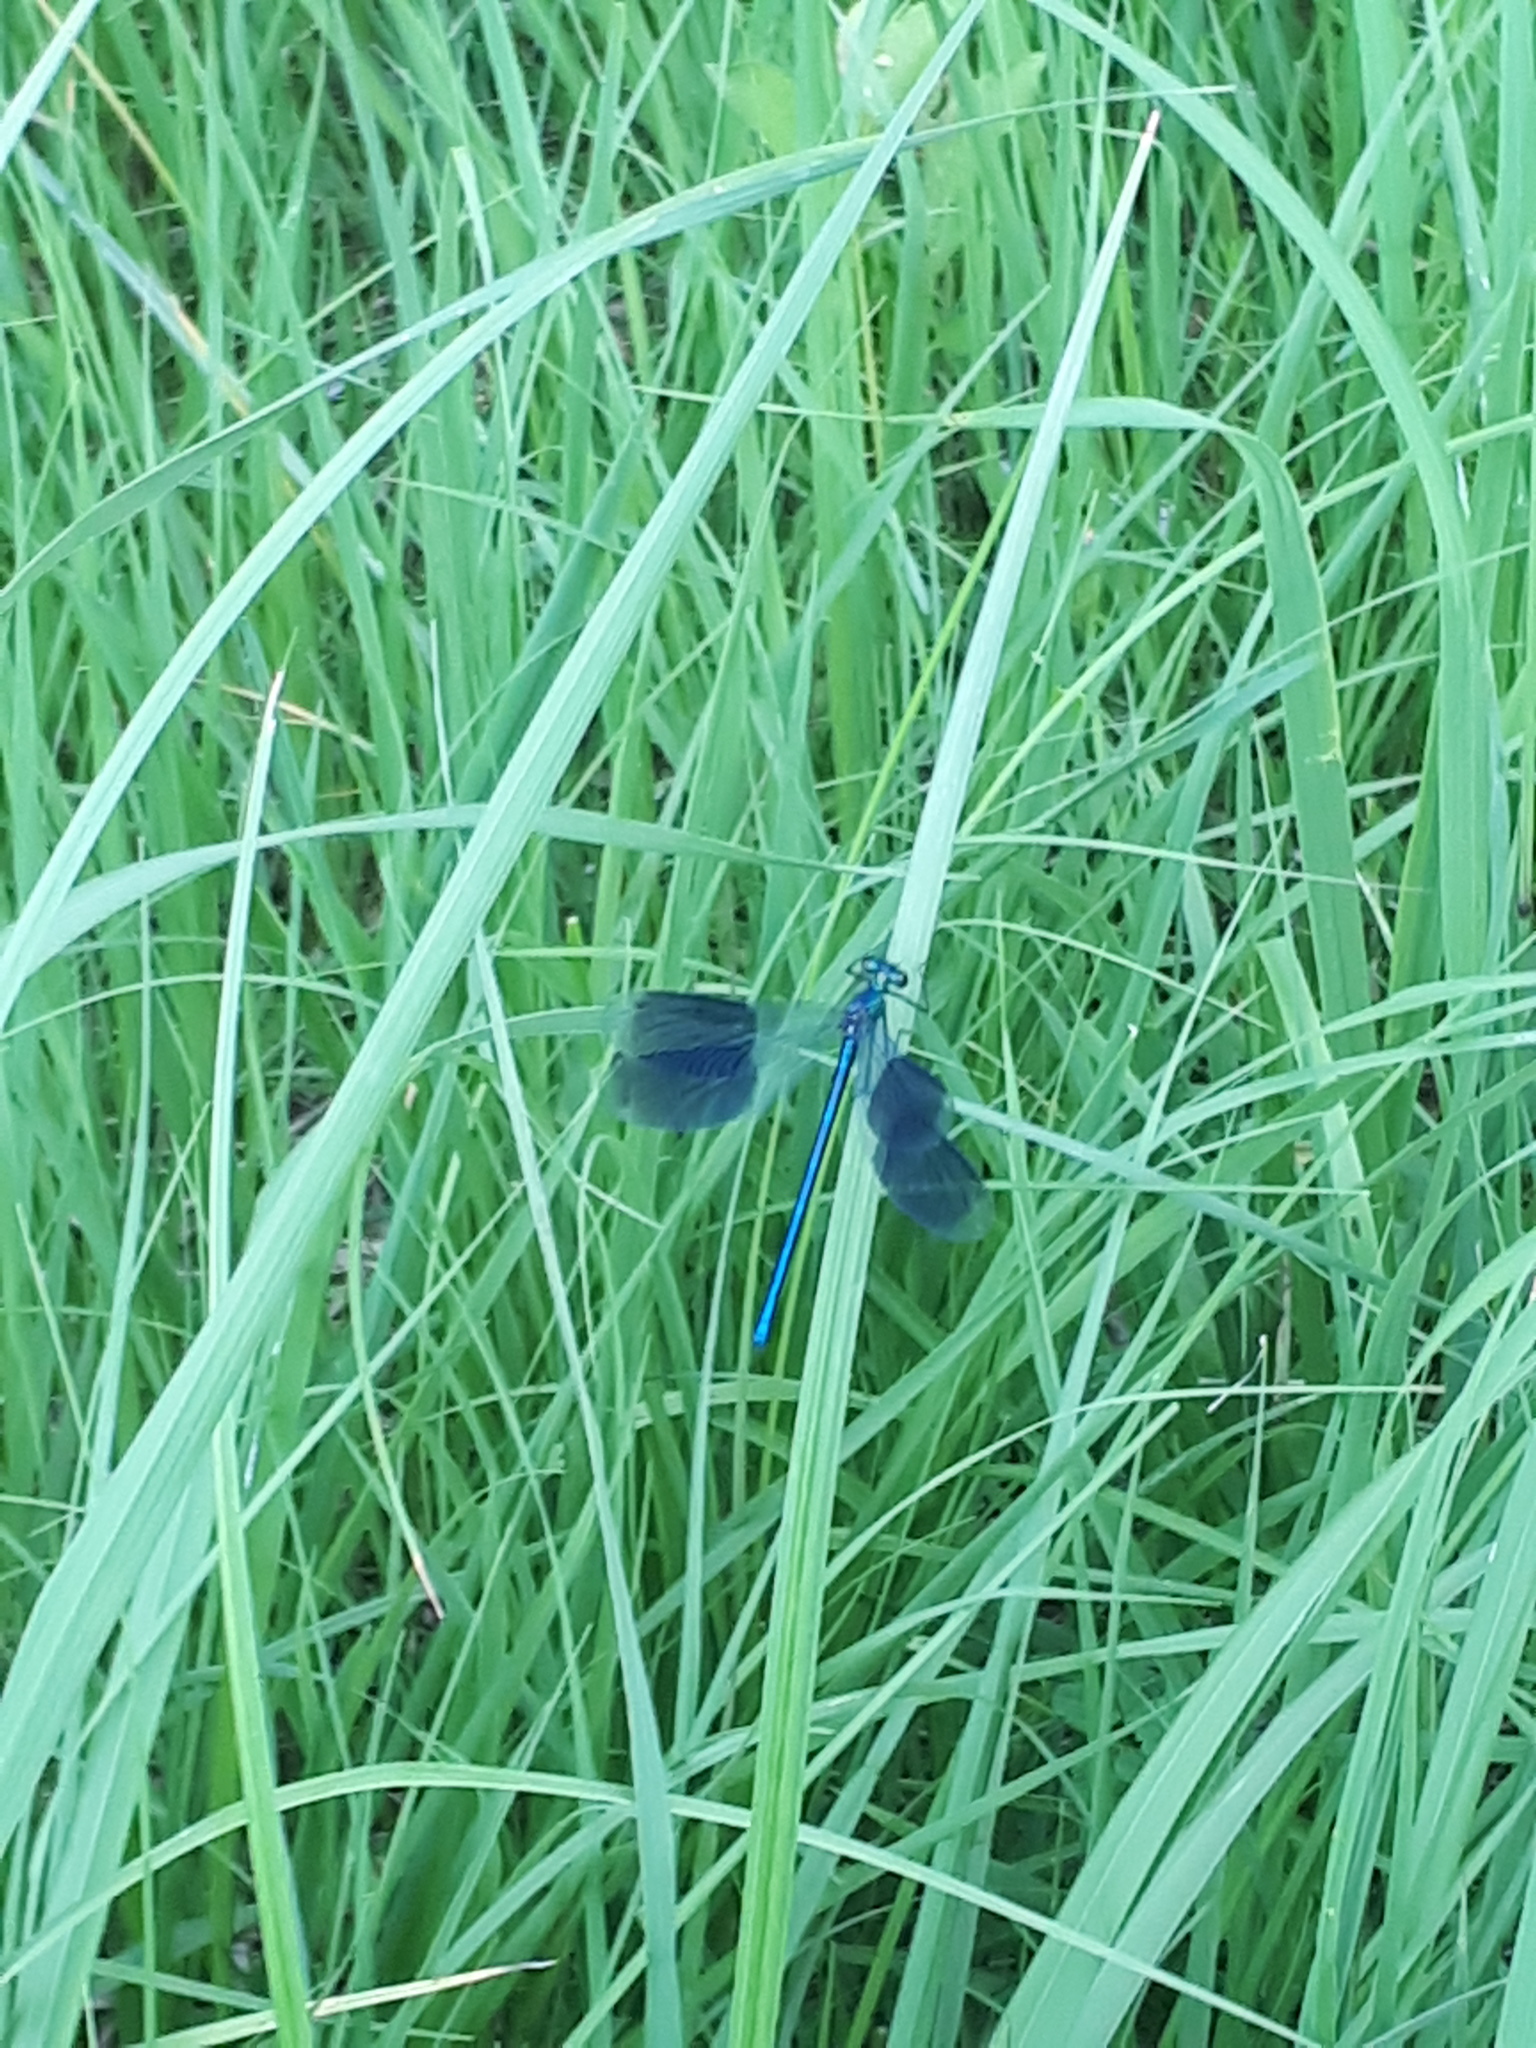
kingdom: Animalia
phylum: Arthropoda
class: Insecta
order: Odonata
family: Calopterygidae
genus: Calopteryx
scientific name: Calopteryx splendens
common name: Banded demoiselle
